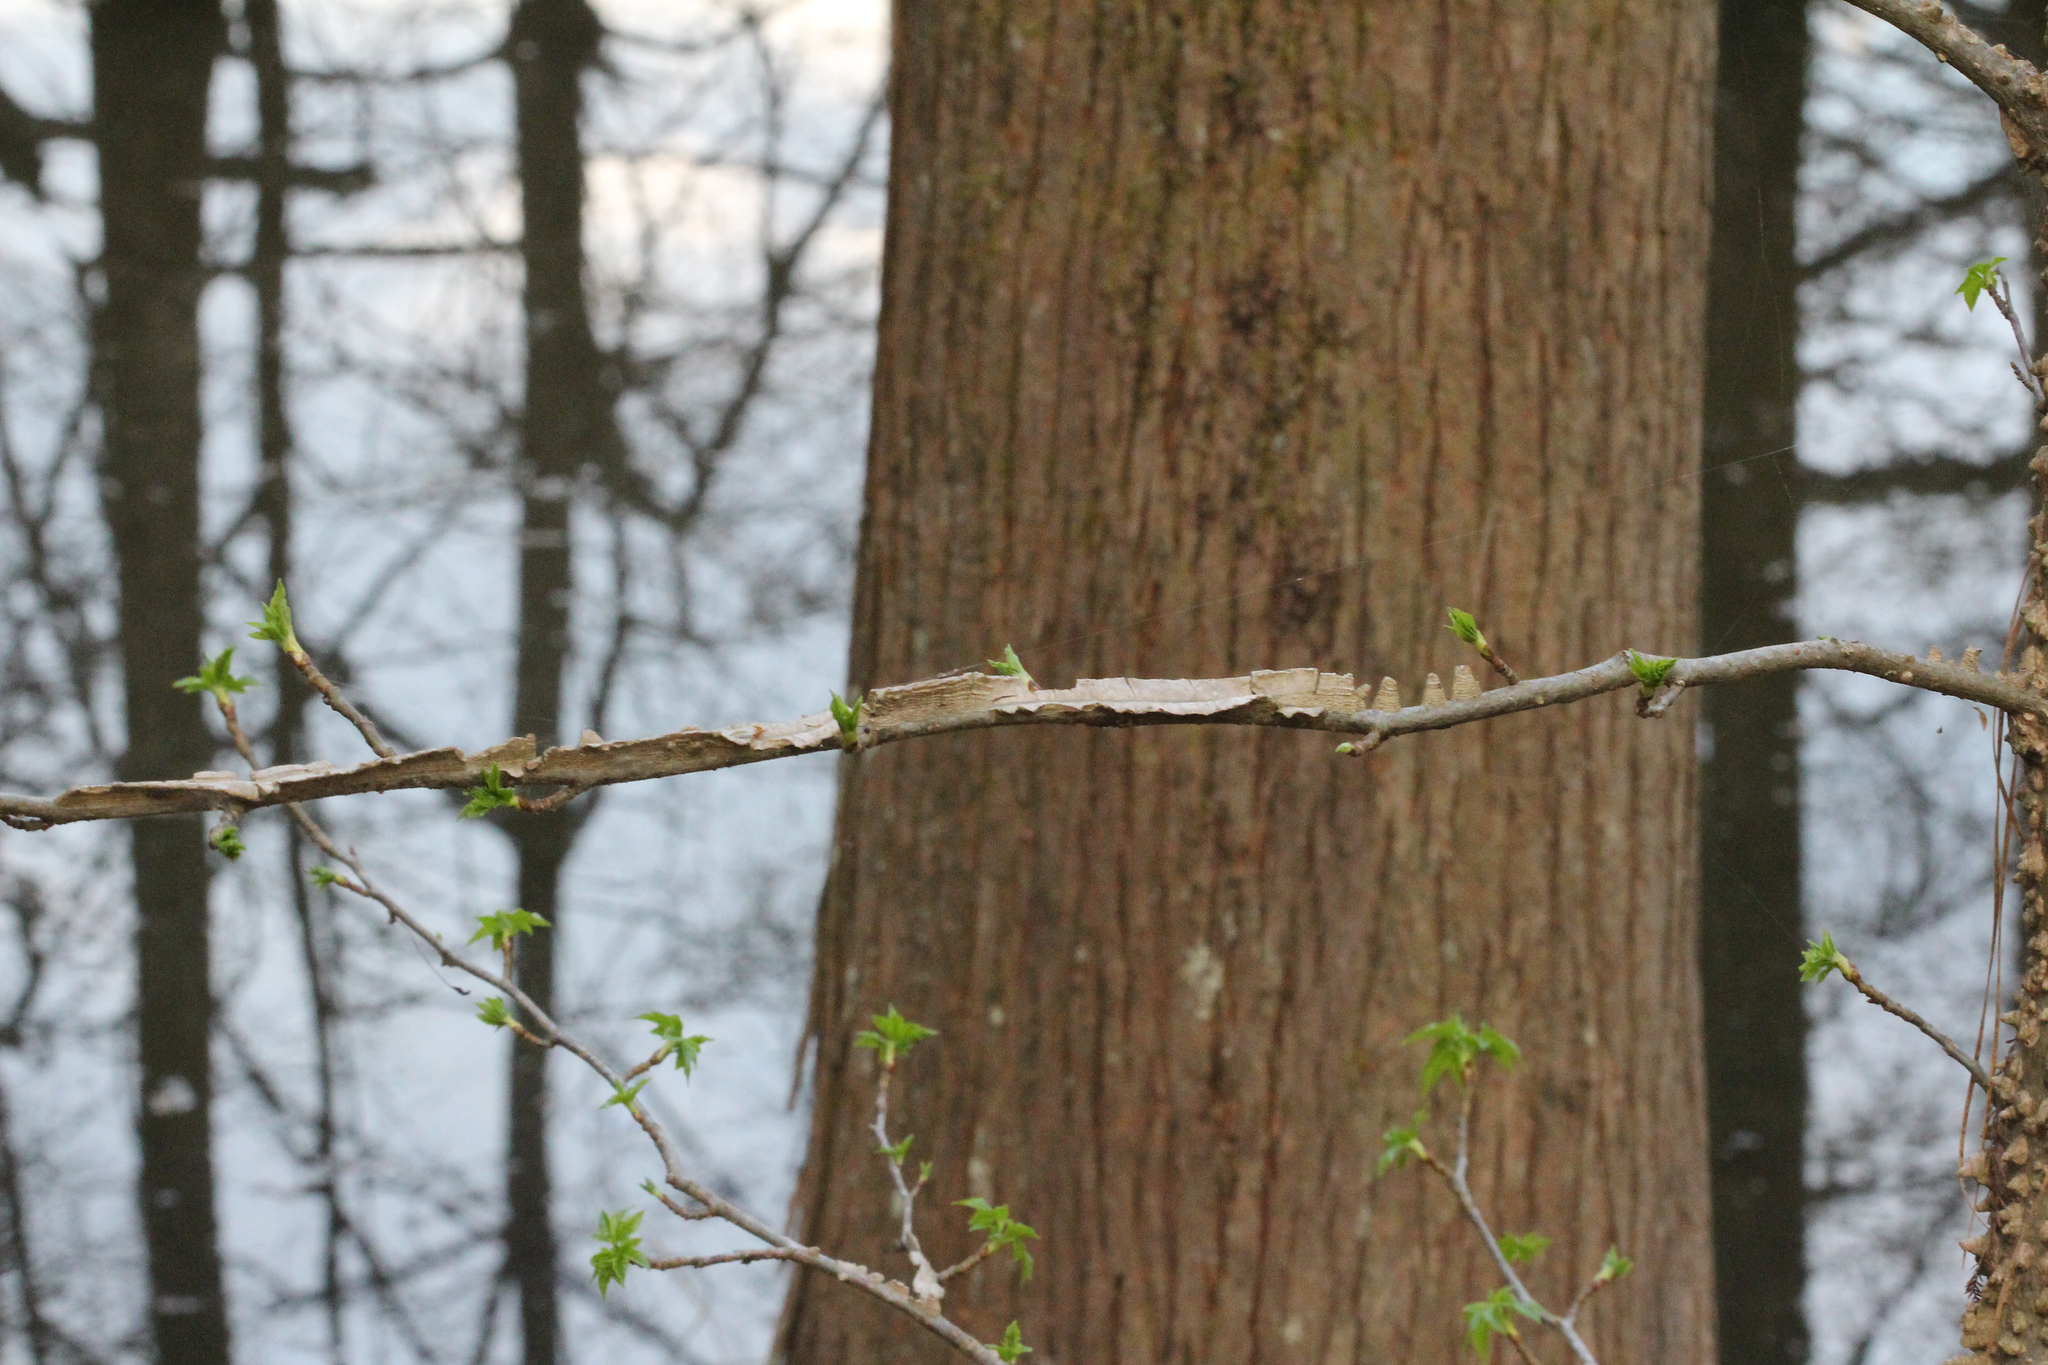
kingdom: Plantae
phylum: Tracheophyta
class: Magnoliopsida
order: Saxifragales
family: Altingiaceae
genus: Liquidambar
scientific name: Liquidambar styraciflua
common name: Sweet gum
